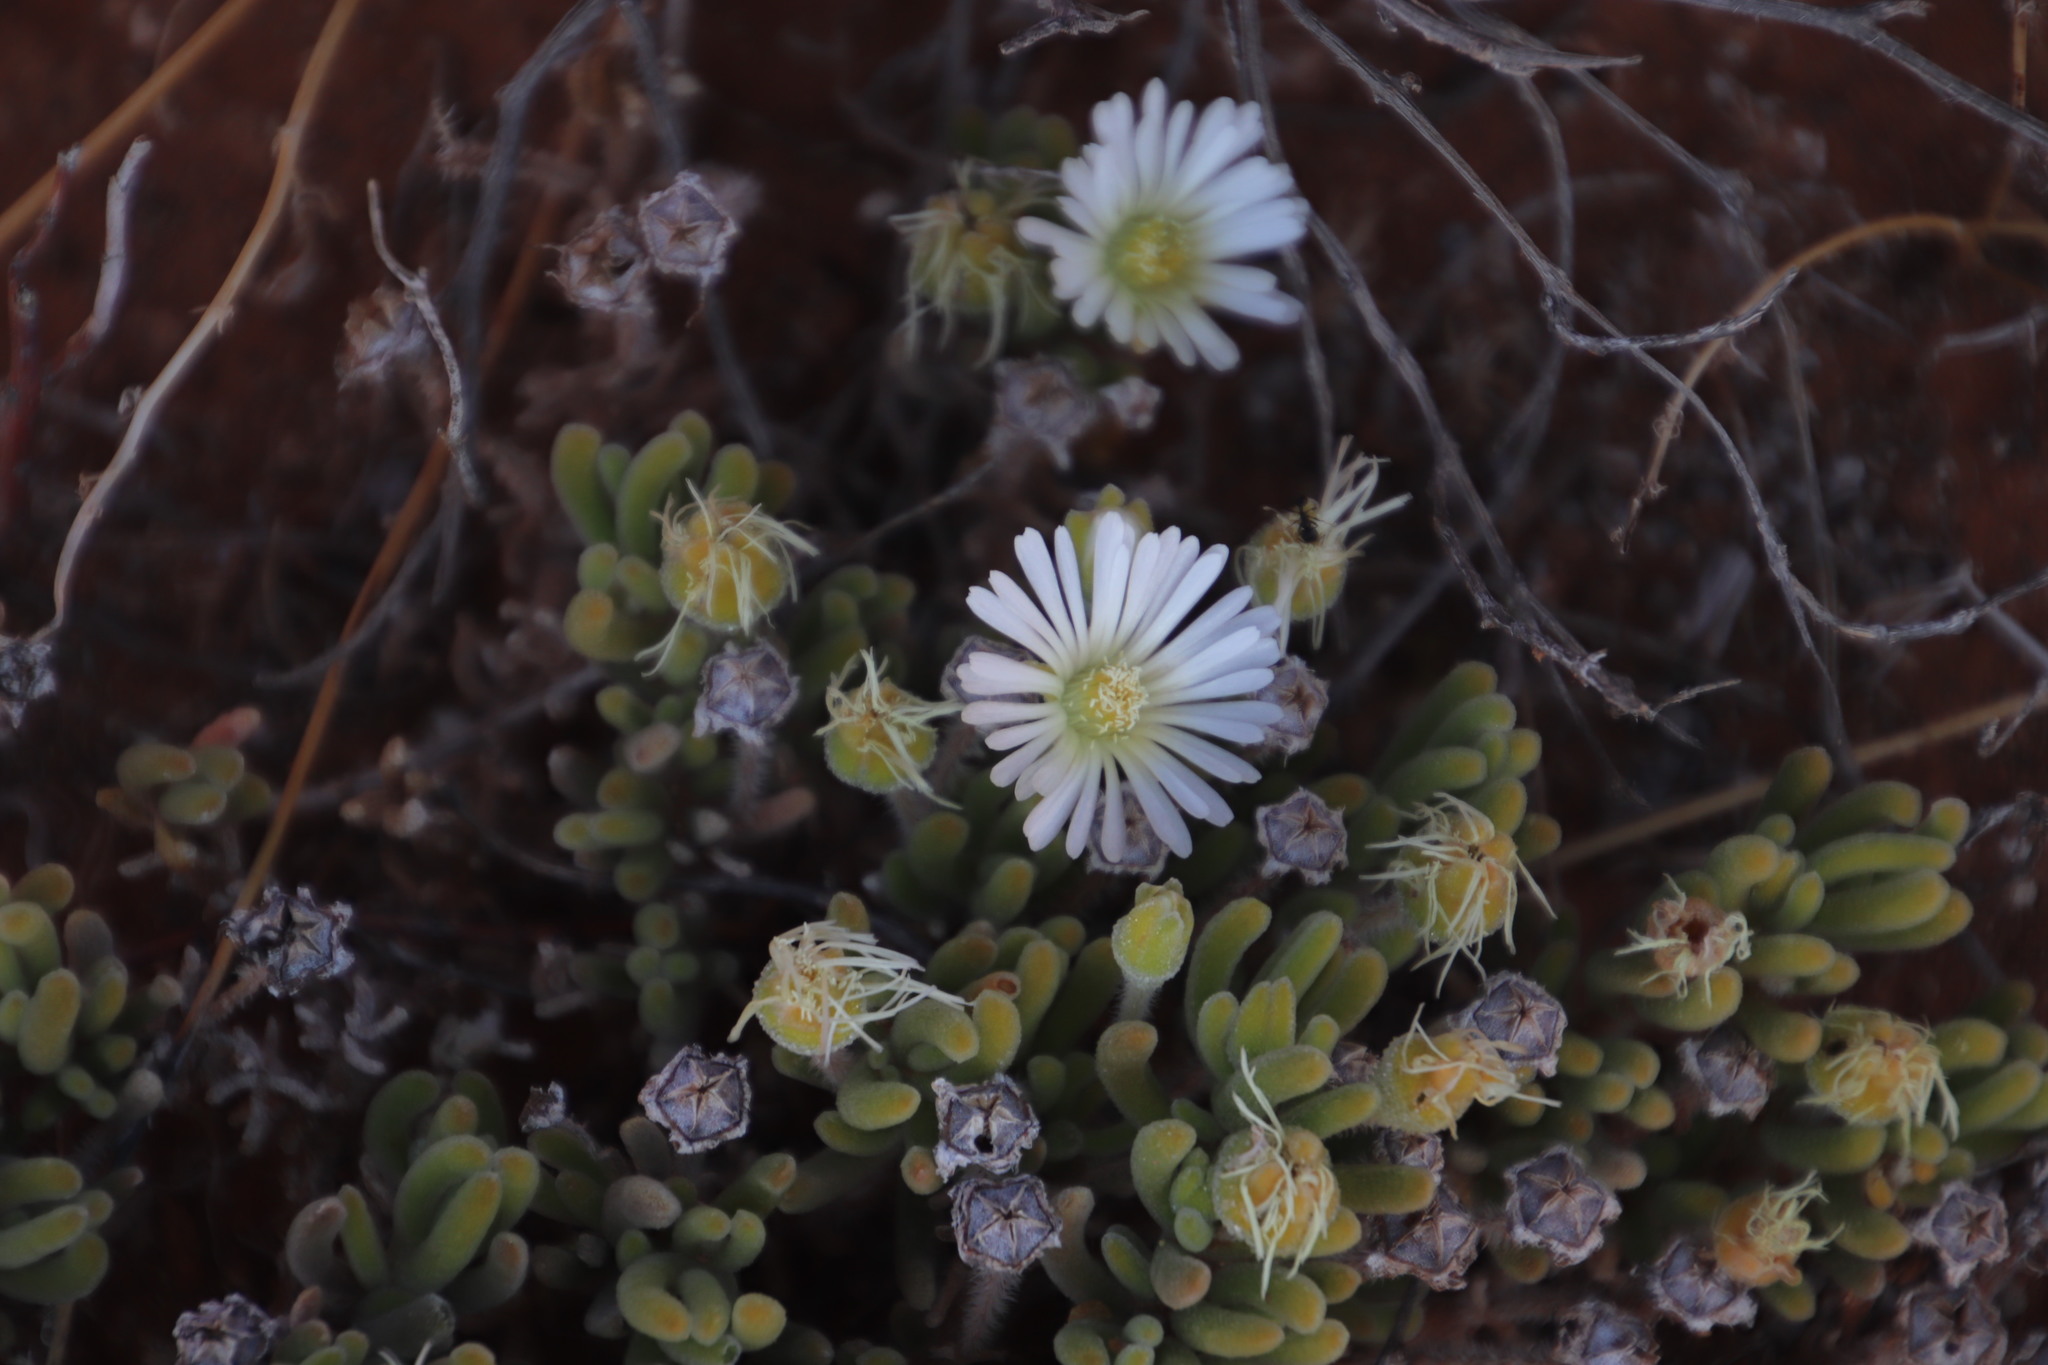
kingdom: Plantae
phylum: Tracheophyta
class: Magnoliopsida
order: Caryophyllales
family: Aizoaceae
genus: Drosanthemum
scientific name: Drosanthemum eburneum
